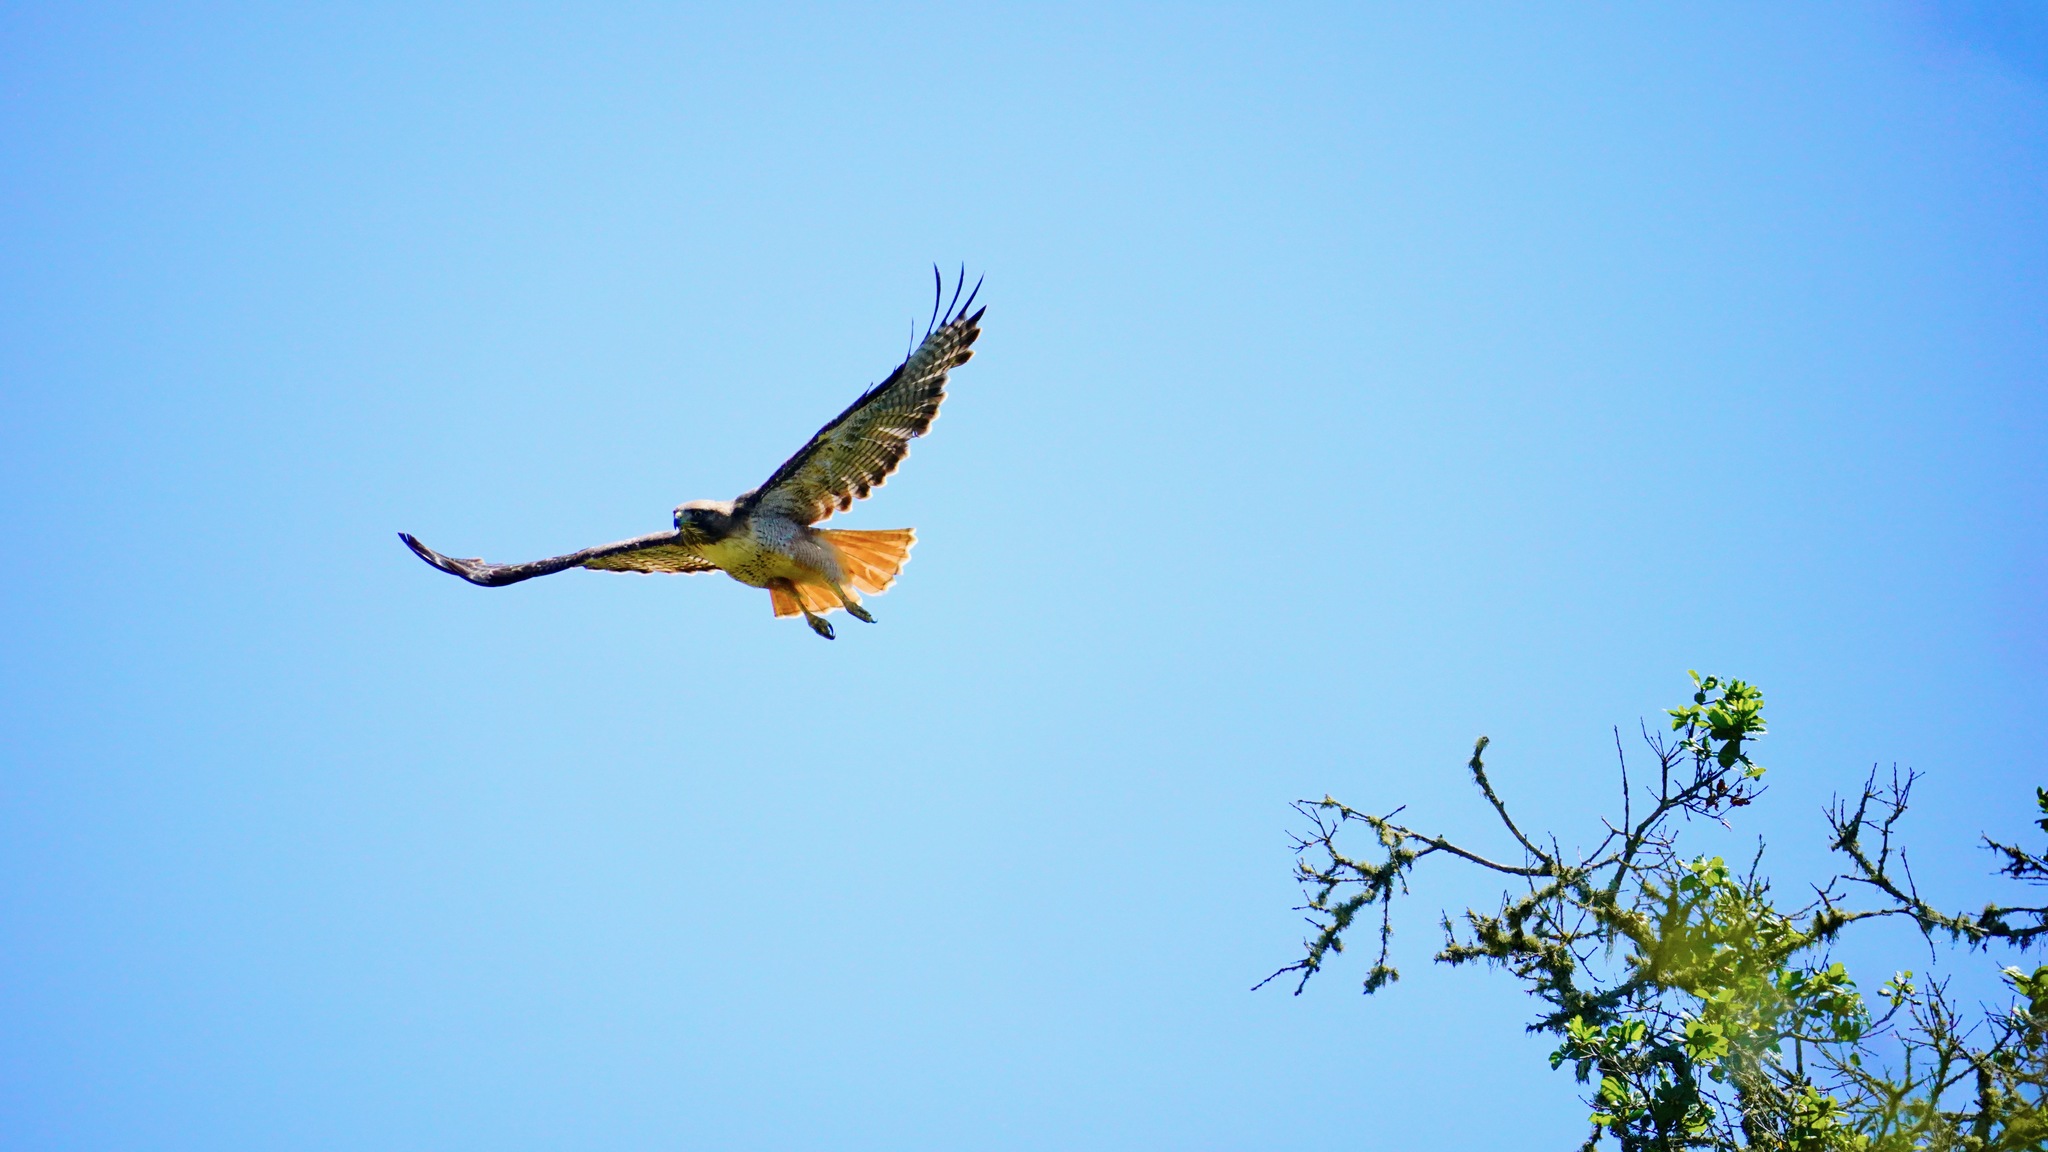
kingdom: Animalia
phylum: Chordata
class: Aves
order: Accipitriformes
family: Accipitridae
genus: Buteo
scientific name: Buteo jamaicensis
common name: Red-tailed hawk
